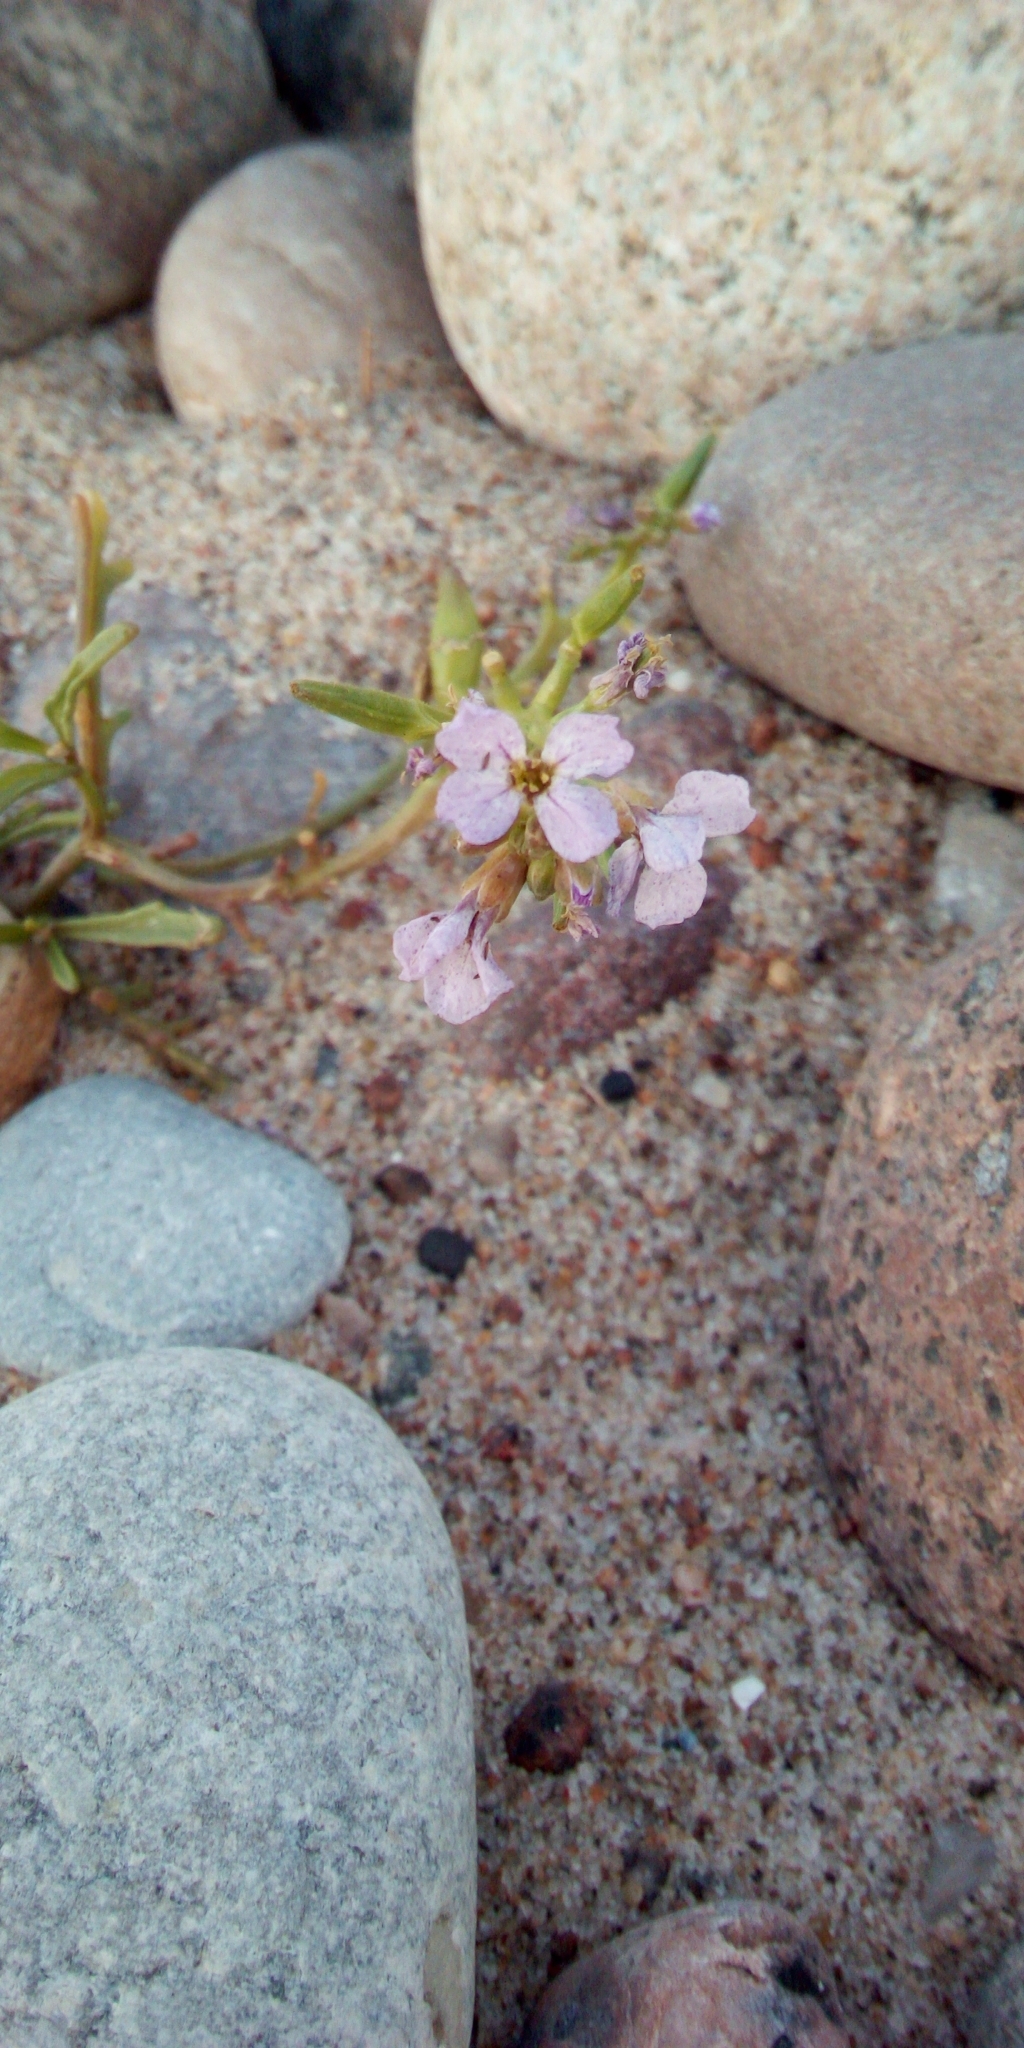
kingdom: Plantae
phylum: Tracheophyta
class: Magnoliopsida
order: Brassicales
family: Brassicaceae
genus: Cakile
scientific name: Cakile maritima
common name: Sea rocket
